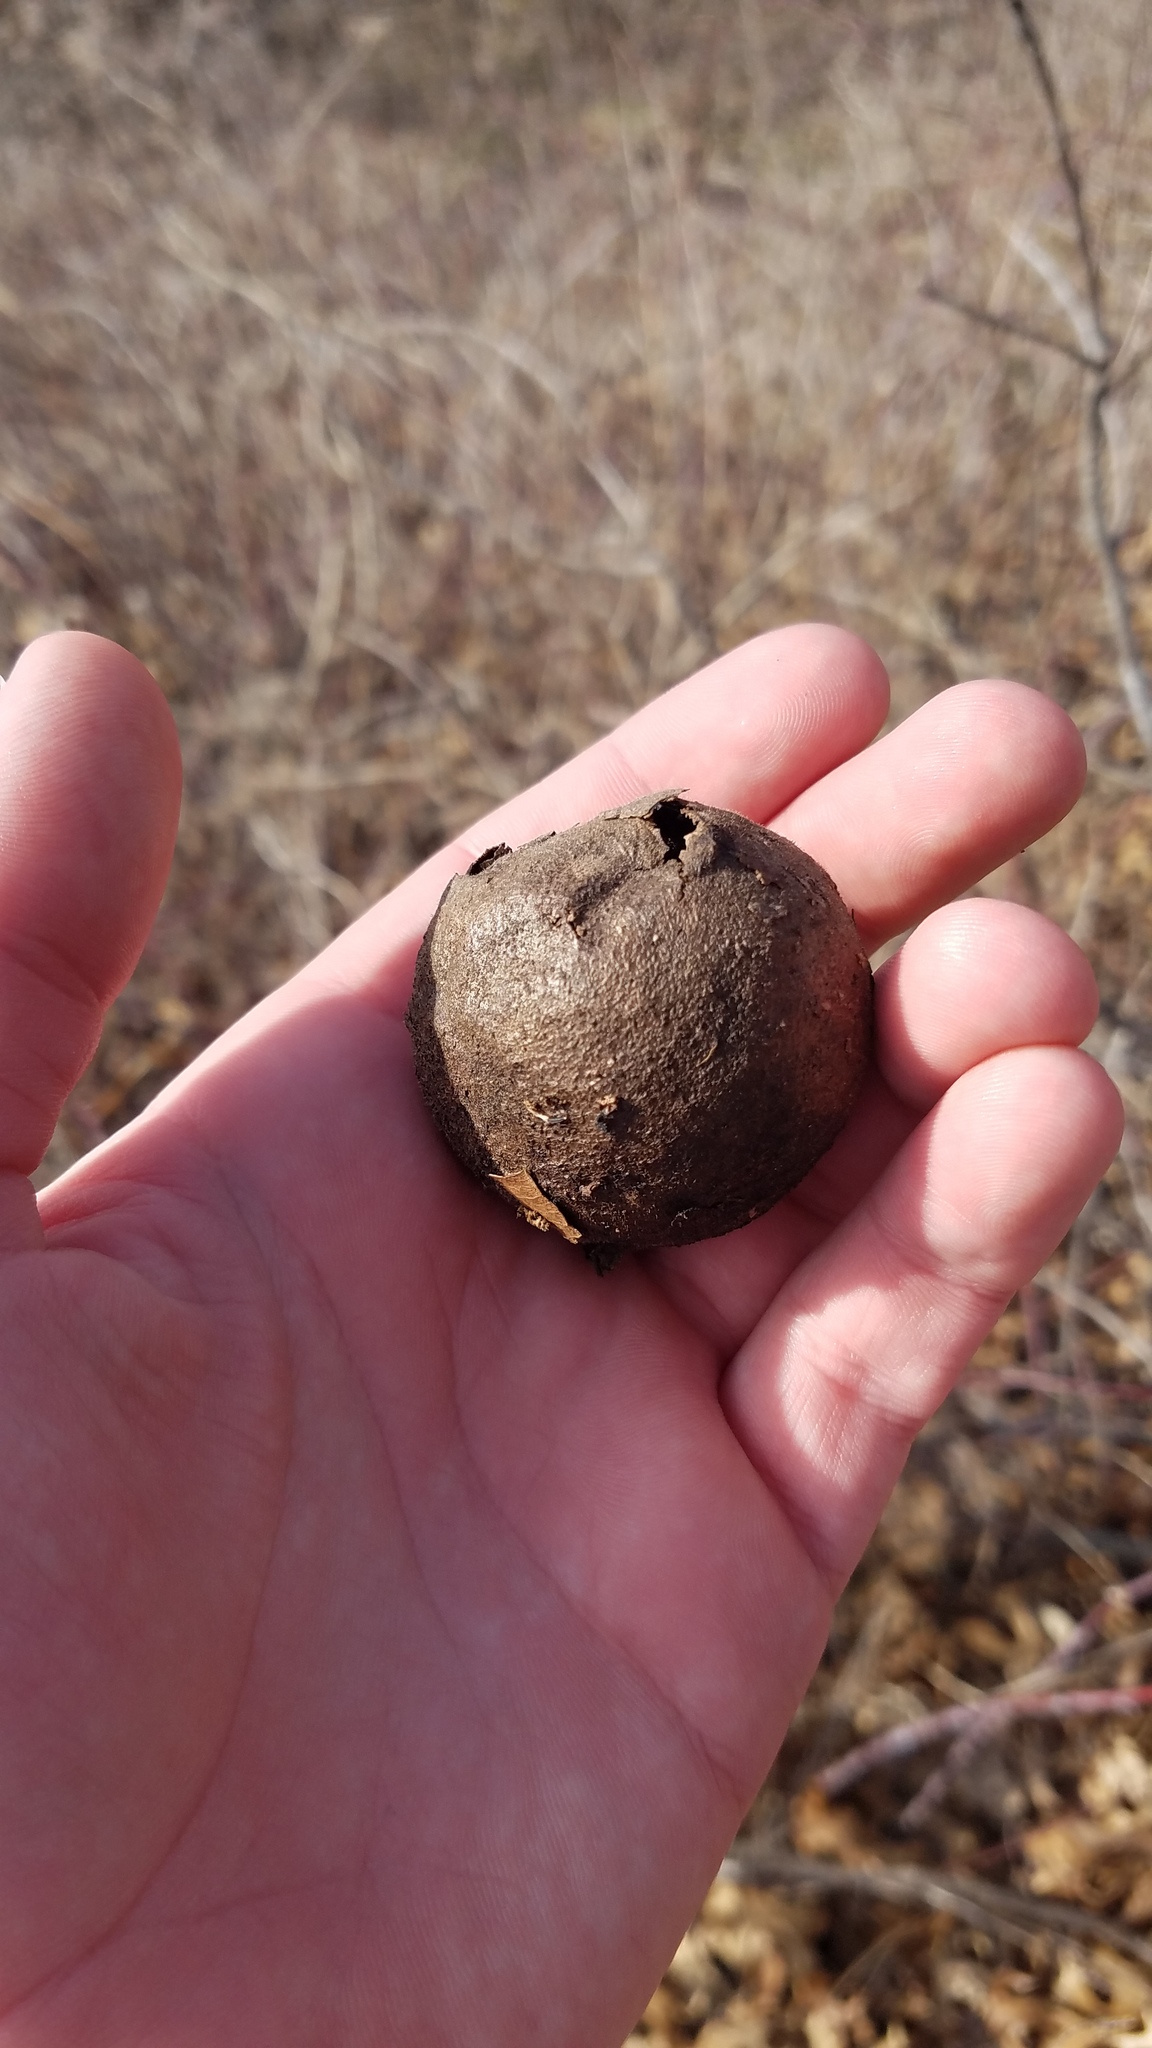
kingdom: Plantae
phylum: Tracheophyta
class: Magnoliopsida
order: Fagales
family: Juglandaceae
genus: Juglans
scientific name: Juglans nigra
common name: Black walnut
